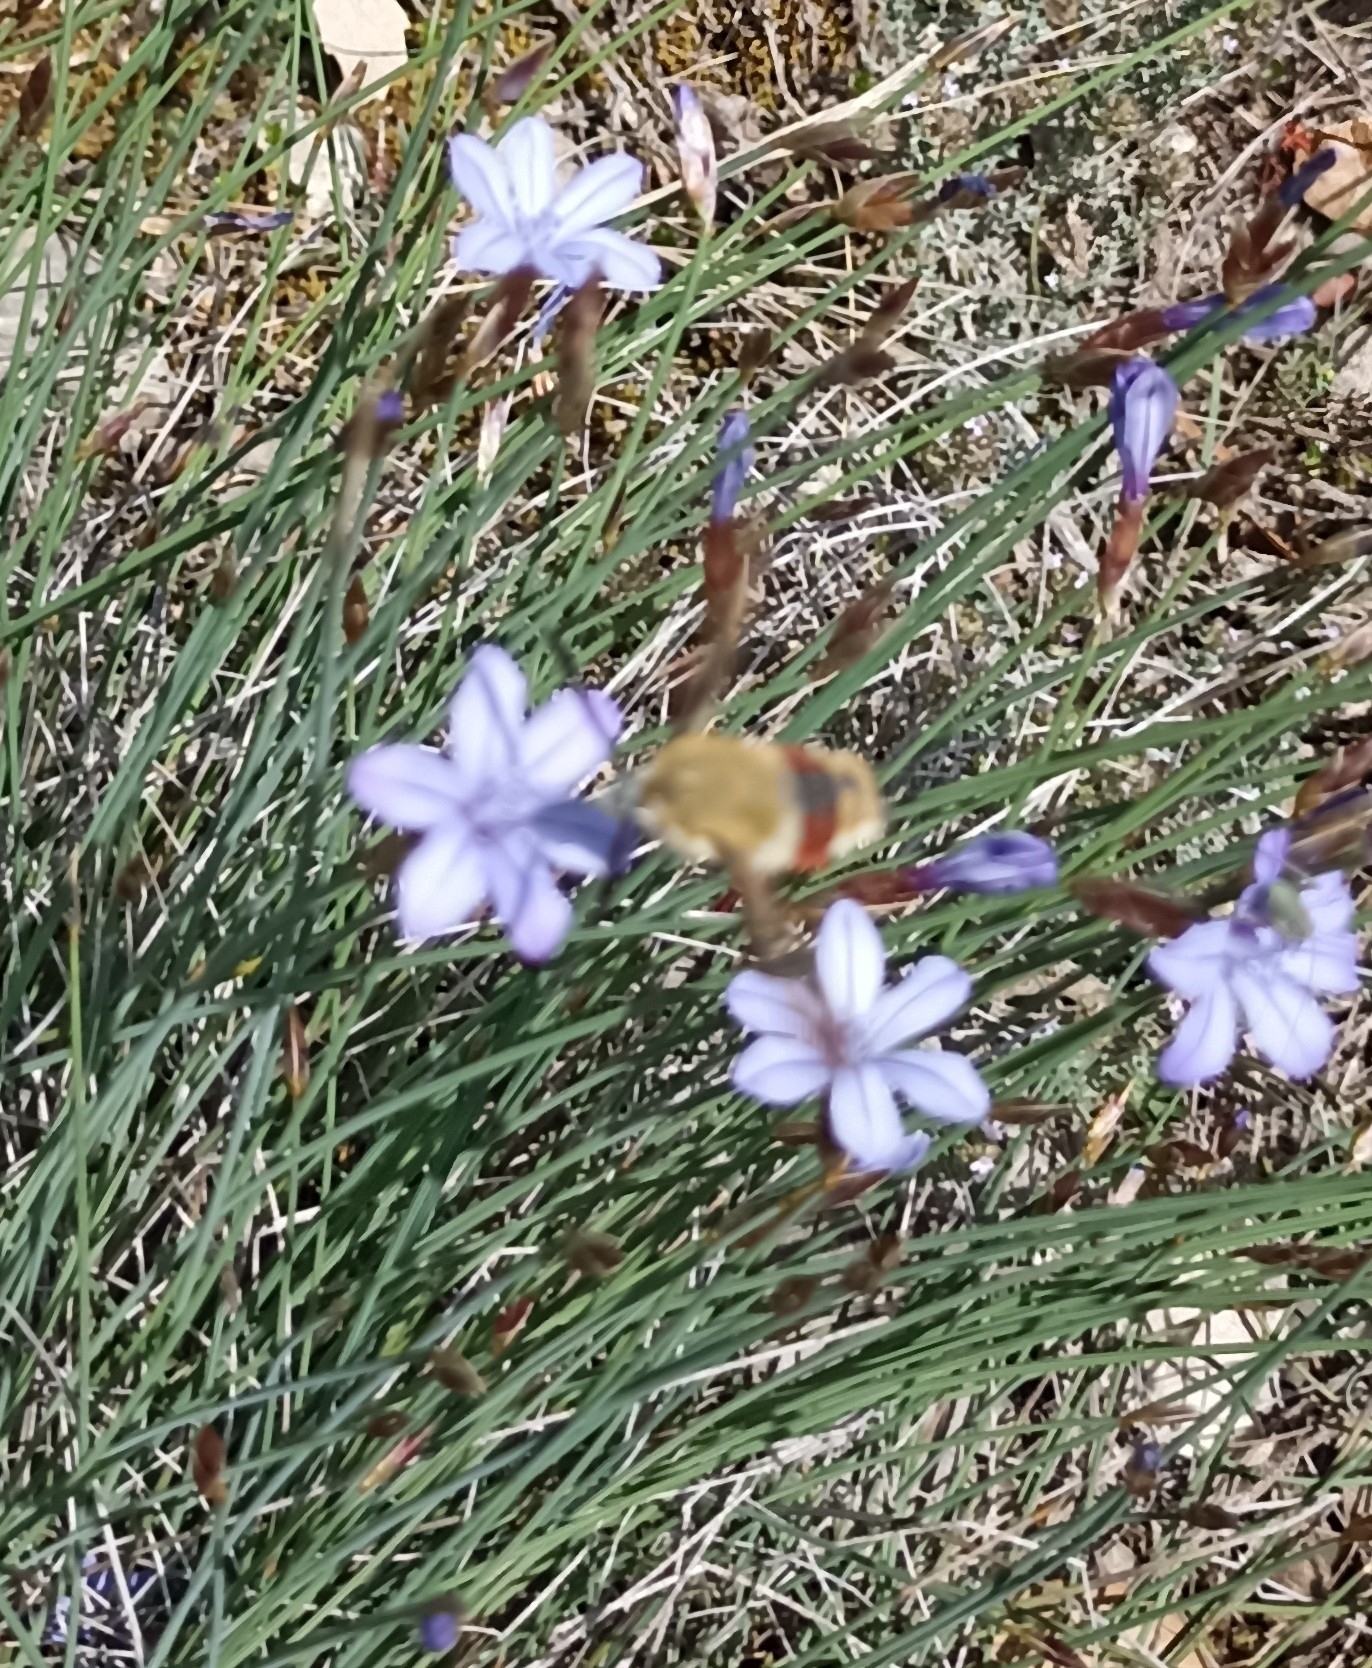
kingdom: Animalia
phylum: Arthropoda
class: Insecta
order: Lepidoptera
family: Sphingidae
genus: Hemaris
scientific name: Hemaris fuciformis
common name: Broad-bordered bee hawk-moth
